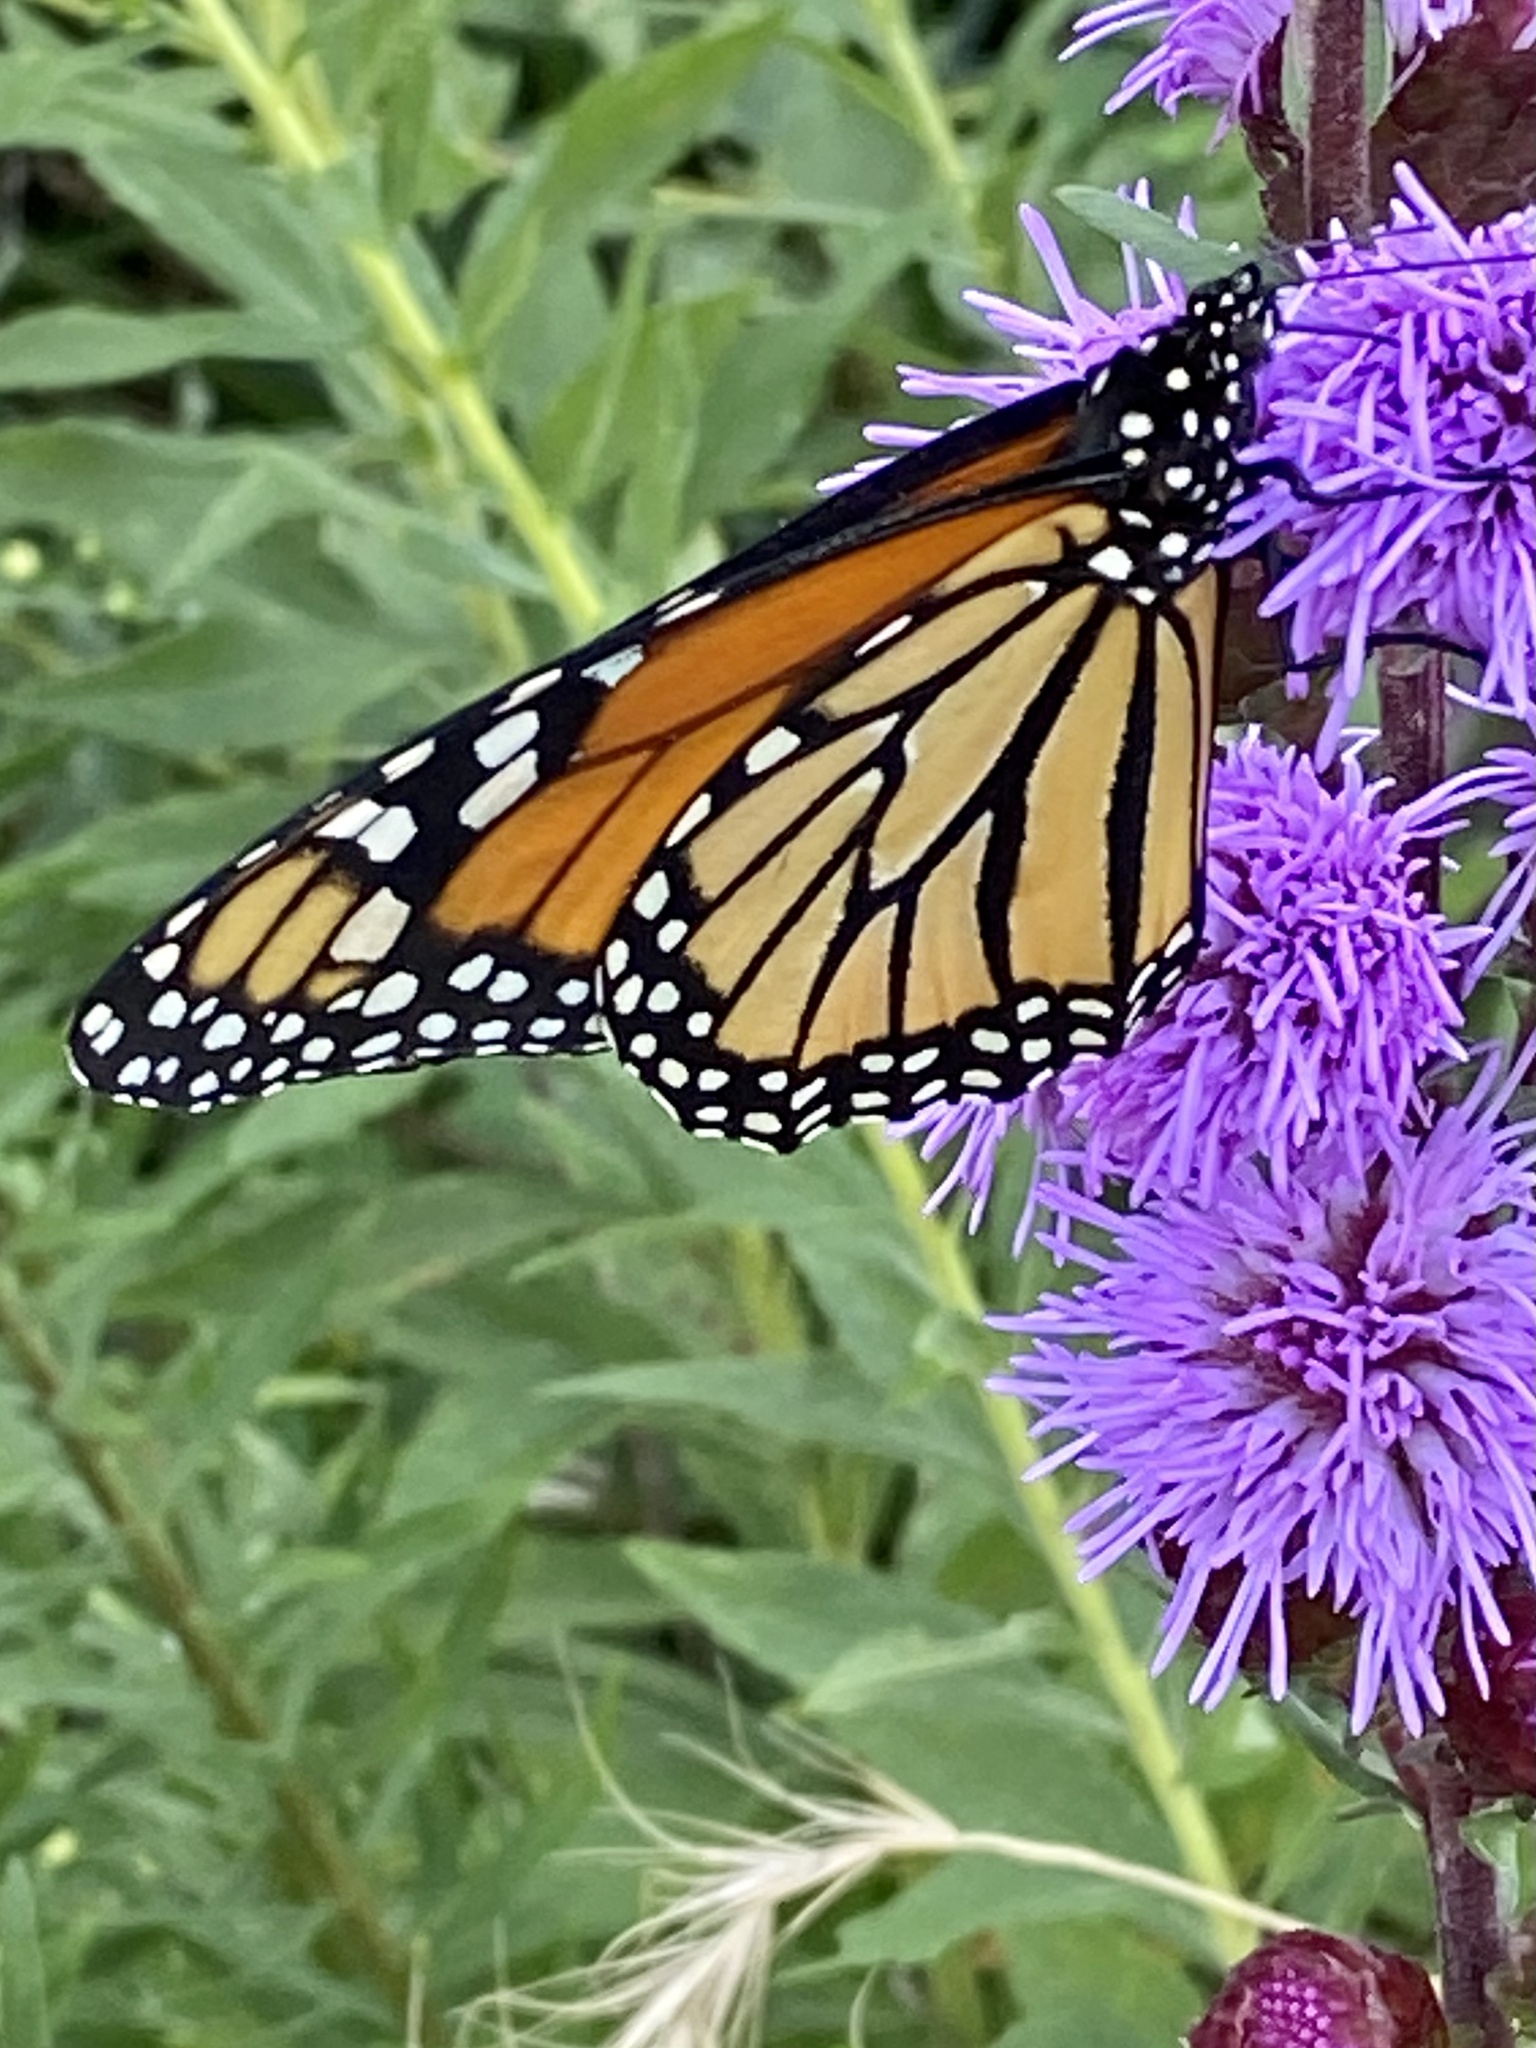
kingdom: Animalia
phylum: Arthropoda
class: Insecta
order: Lepidoptera
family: Nymphalidae
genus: Danaus
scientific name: Danaus plexippus
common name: Monarch
